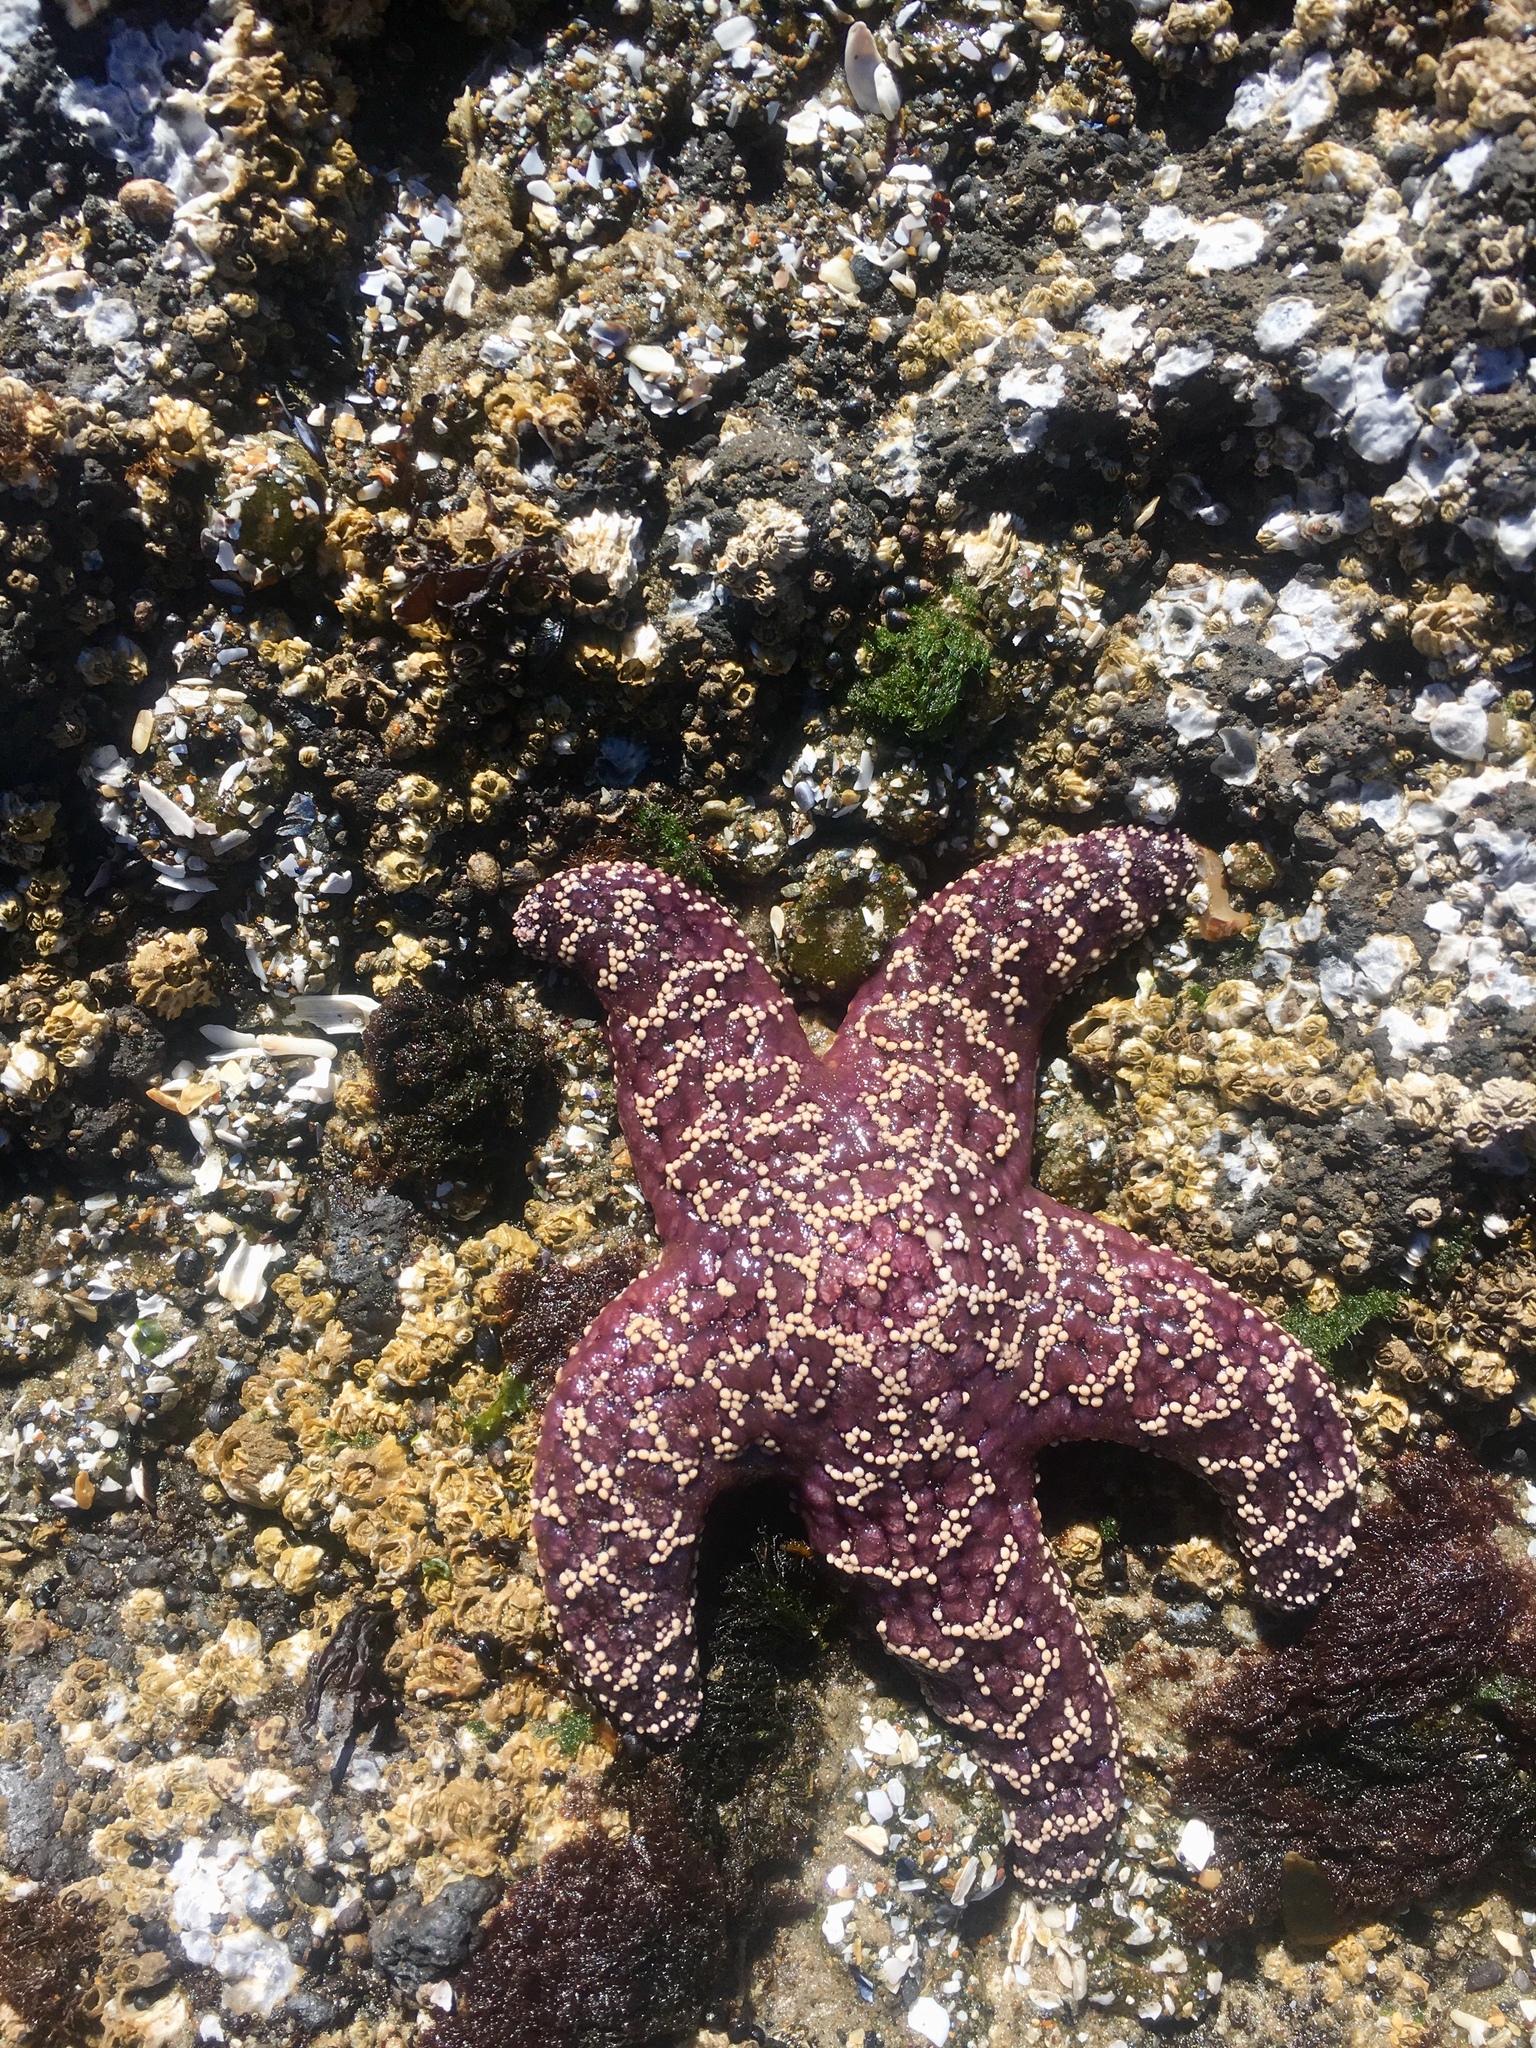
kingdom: Animalia
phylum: Echinodermata
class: Asteroidea
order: Forcipulatida
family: Asteriidae
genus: Pisaster
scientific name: Pisaster ochraceus
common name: Ochre stars
